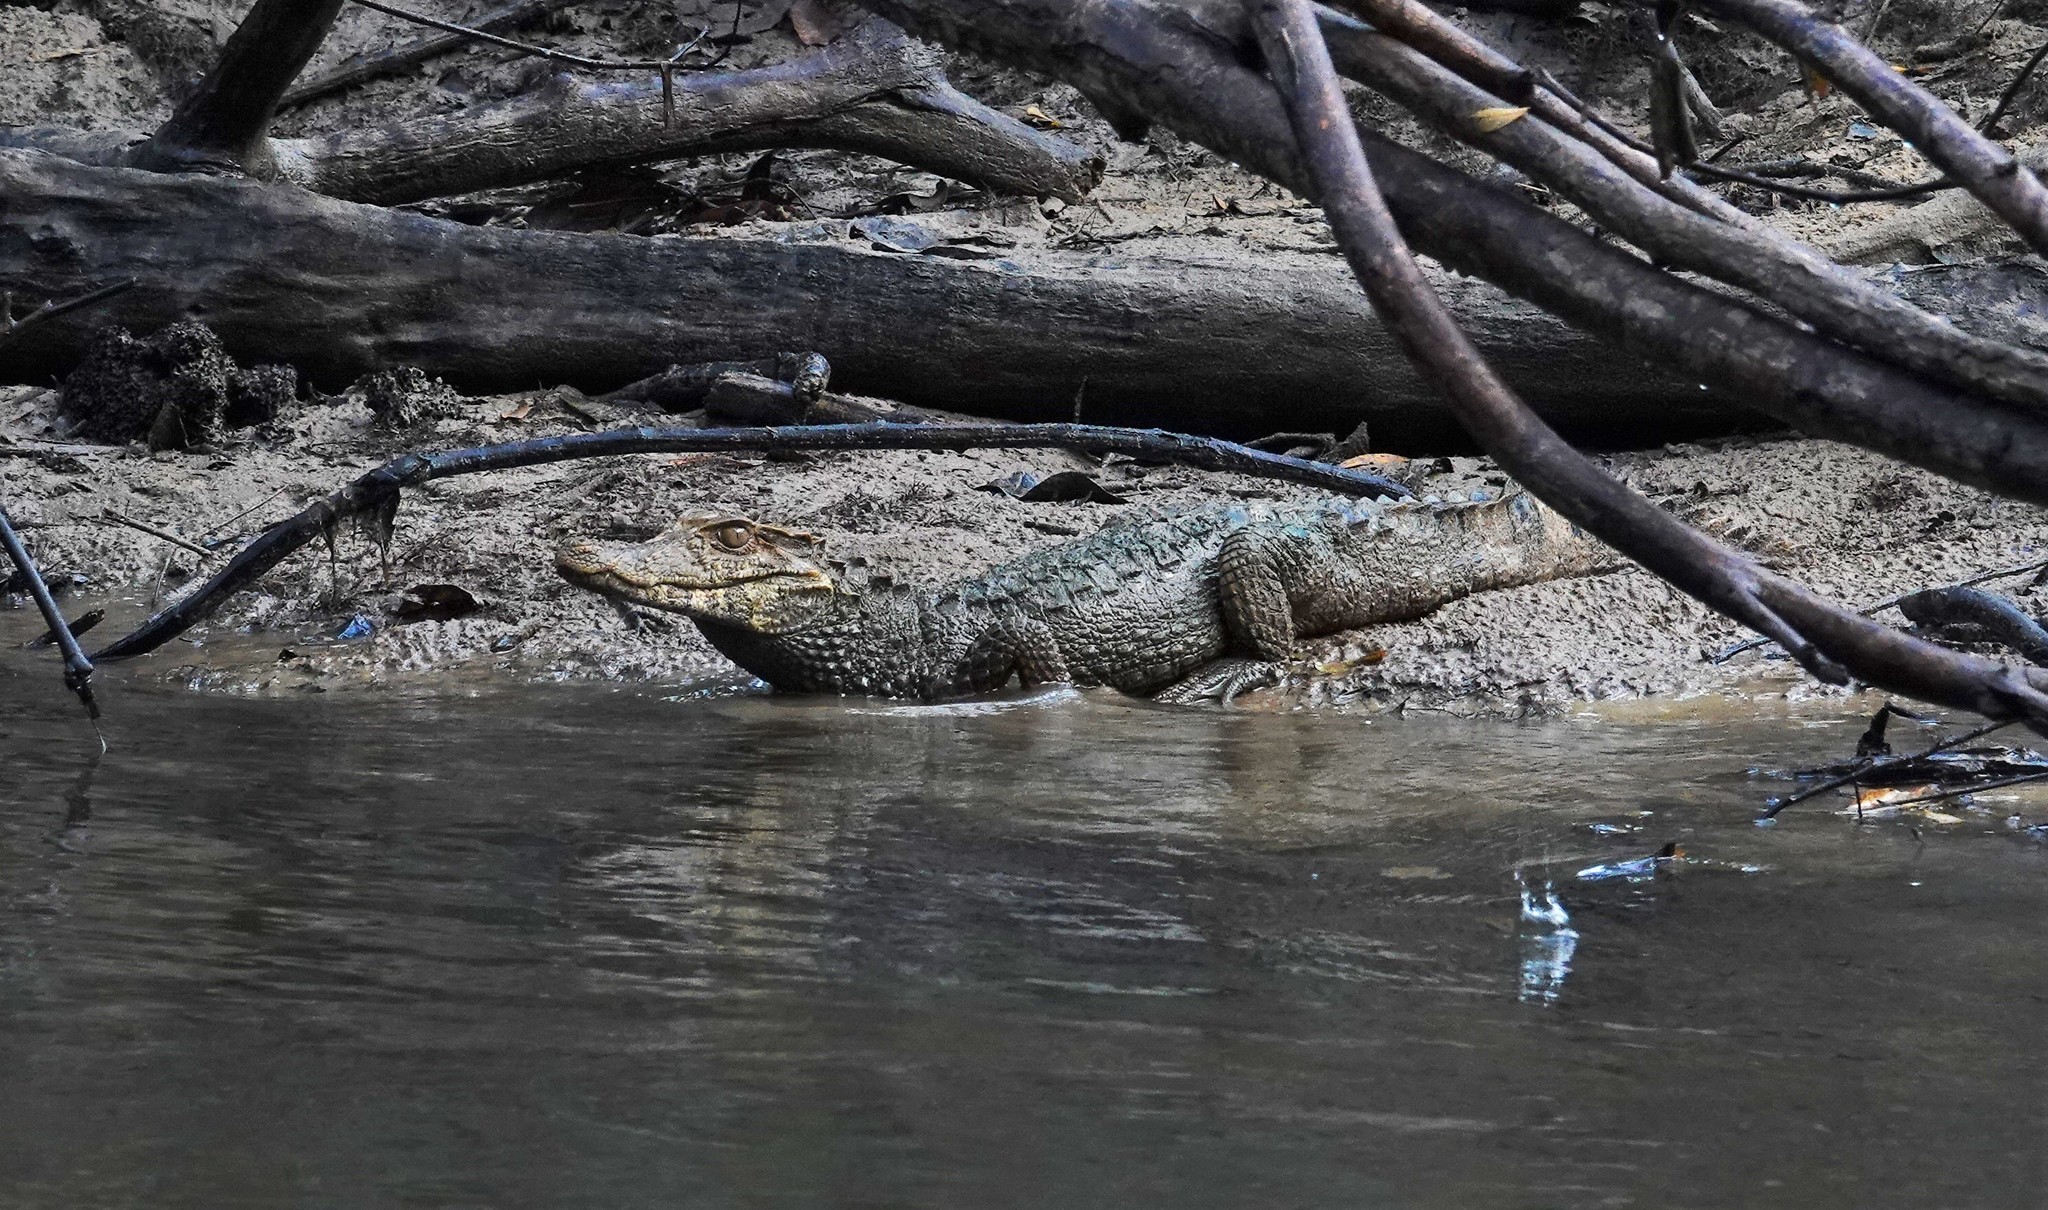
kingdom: Animalia
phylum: Chordata
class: Crocodylia
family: Alligatoridae
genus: Paleosuchus
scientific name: Paleosuchus palpebrosus
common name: Cuvier's smooth-fronted caiman
